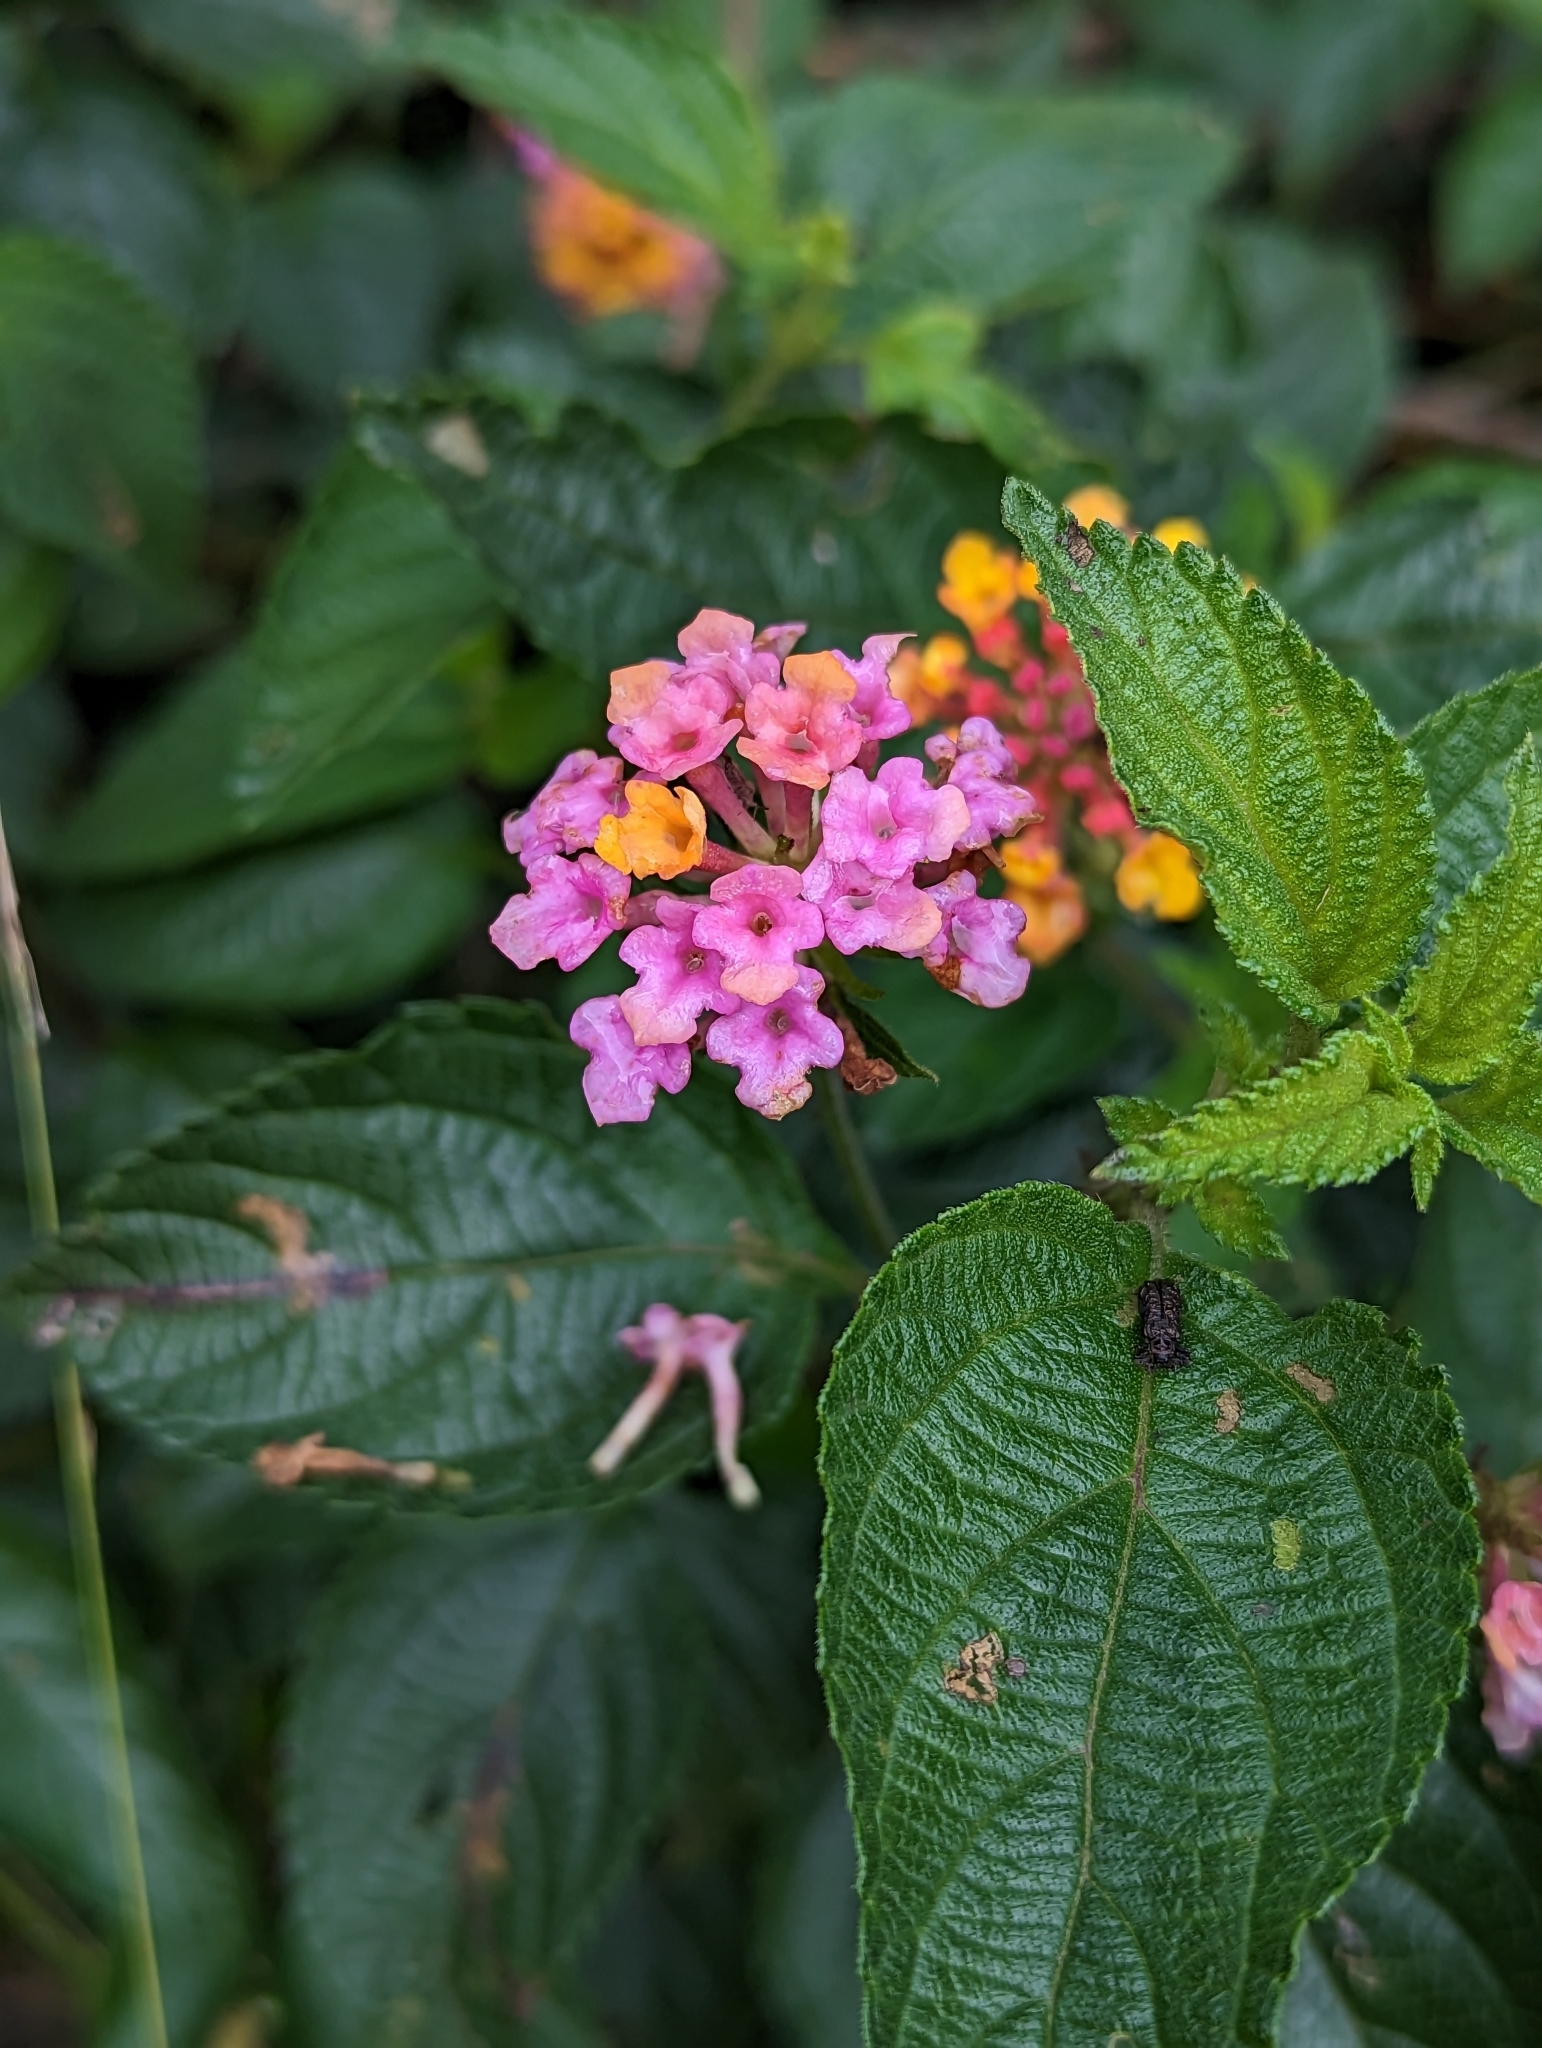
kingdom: Plantae
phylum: Tracheophyta
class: Magnoliopsida
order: Lamiales
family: Verbenaceae
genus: Lantana
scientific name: Lantana camara
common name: Lantana
